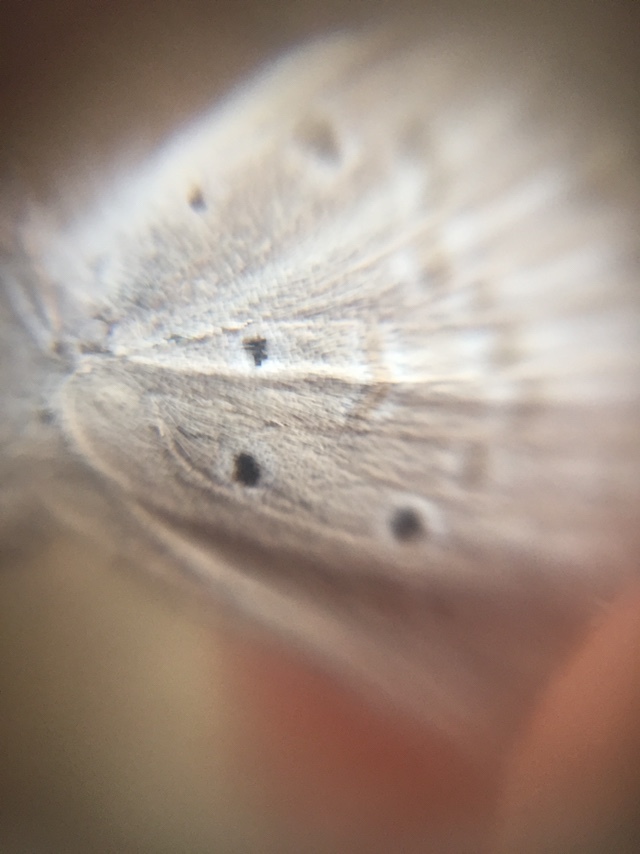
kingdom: Animalia
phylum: Arthropoda
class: Insecta
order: Lepidoptera
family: Lycaenidae
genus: Euchrysops
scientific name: Euchrysops cnejus
